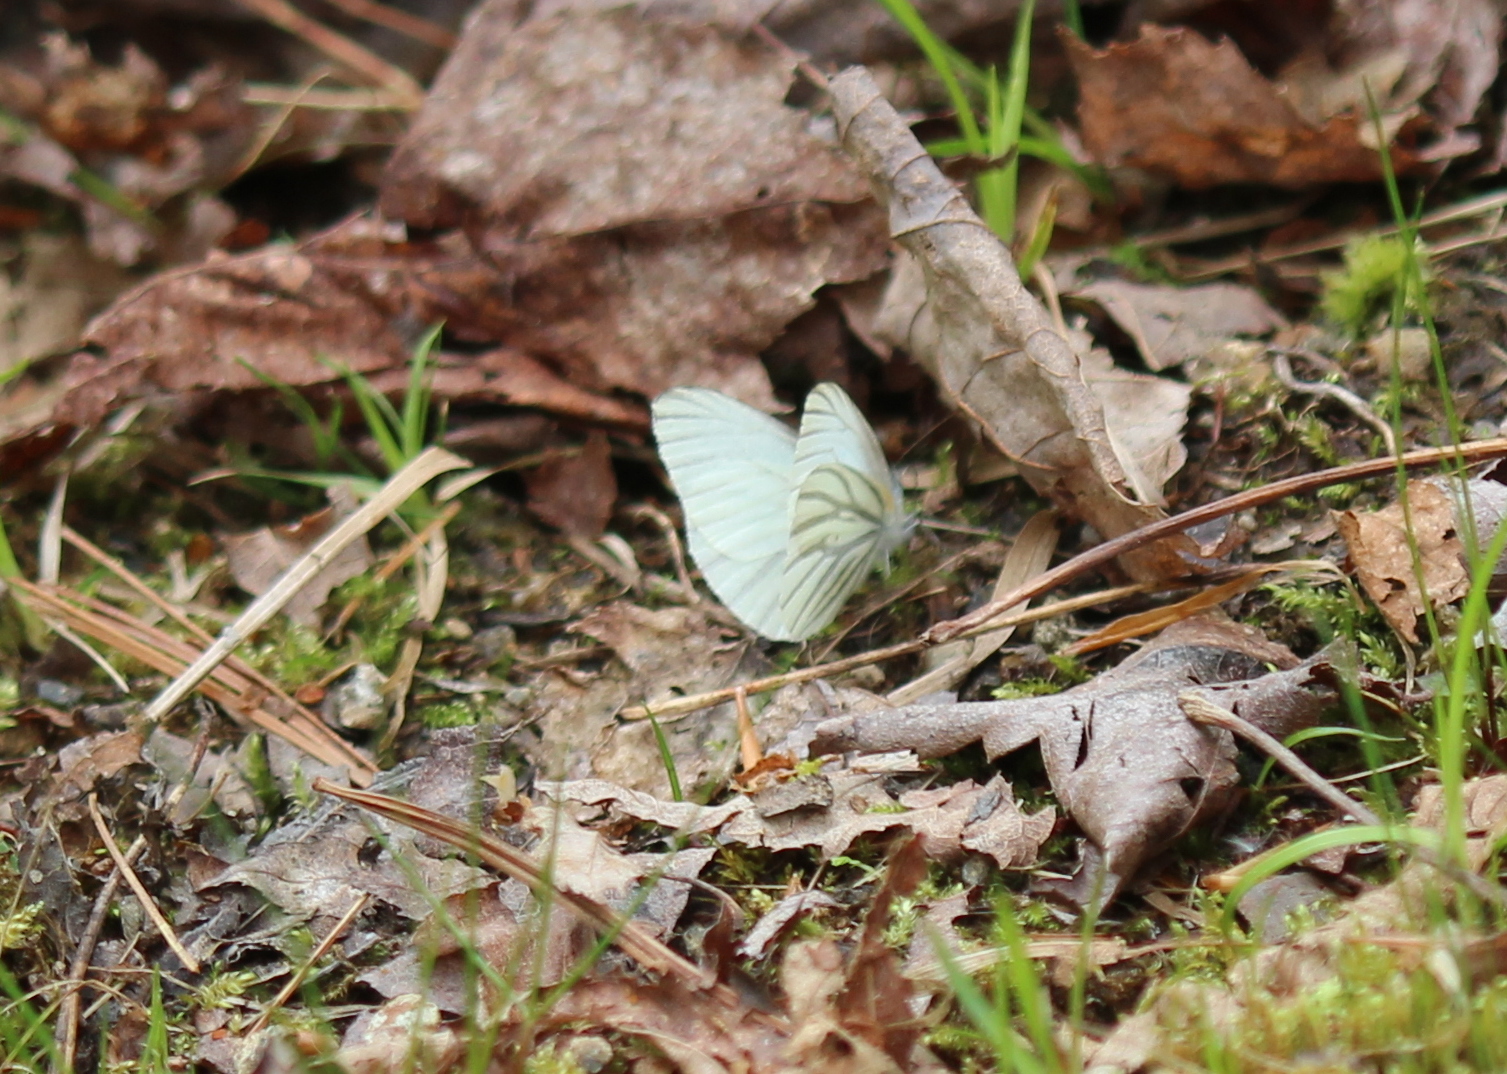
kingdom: Animalia
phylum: Arthropoda
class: Insecta
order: Lepidoptera
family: Pieridae
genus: Pieris
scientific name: Pieris oleracea
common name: Mustard white
